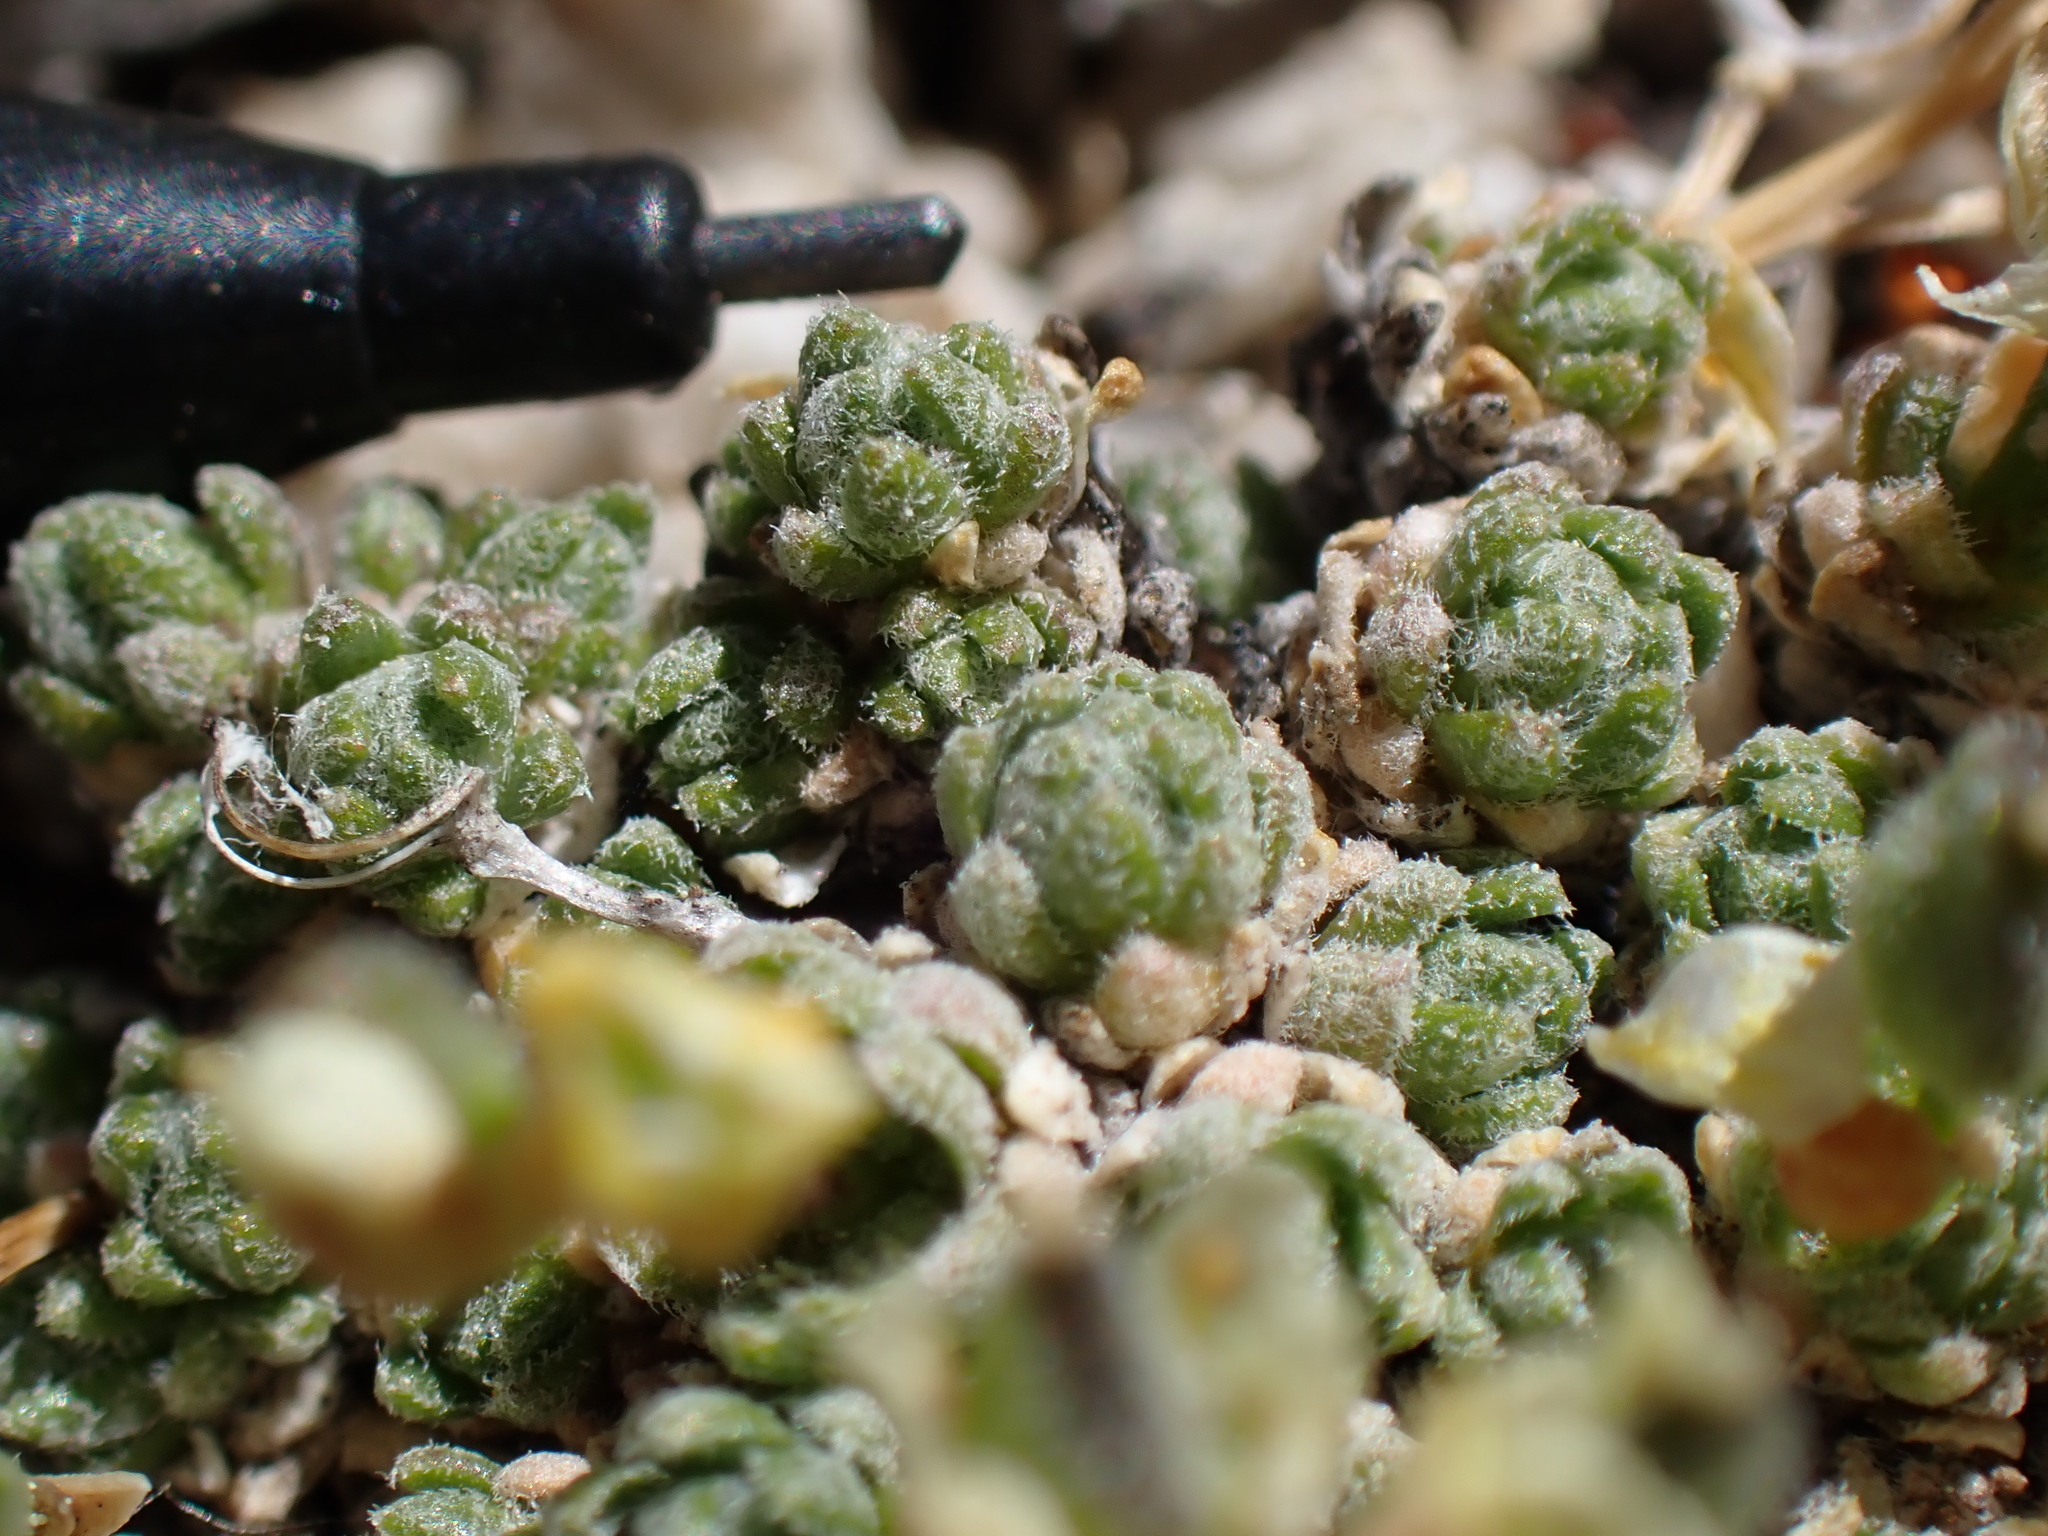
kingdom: Plantae
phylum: Tracheophyta
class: Magnoliopsida
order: Brassicales
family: Brassicaceae
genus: Draba
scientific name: Draba oligosperma
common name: Few-seed draba
